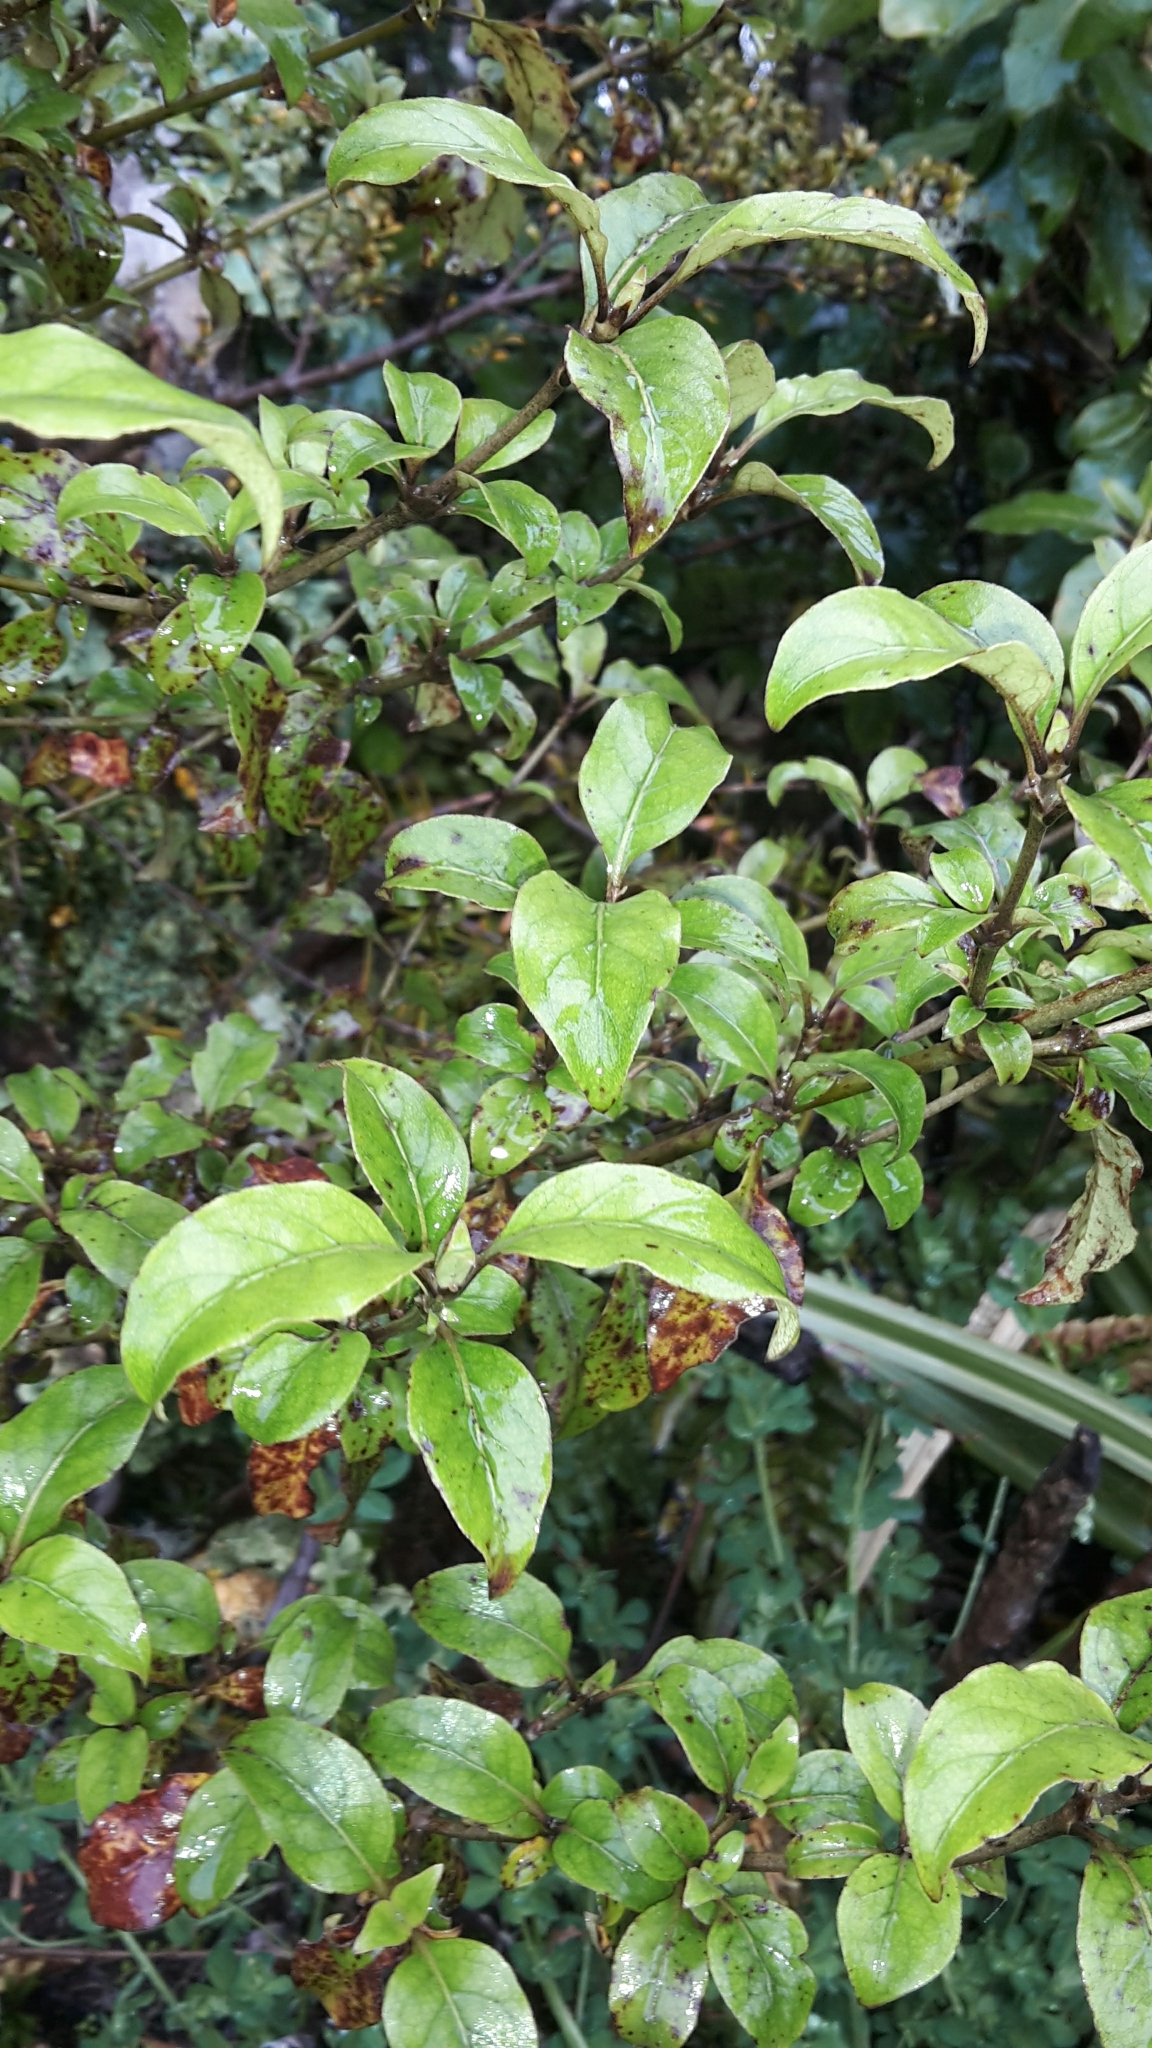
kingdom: Plantae
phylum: Tracheophyta
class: Magnoliopsida
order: Apiales
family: Pittosporaceae
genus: Pittosporum
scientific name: Pittosporum tenuifolium
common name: Kohuhu
